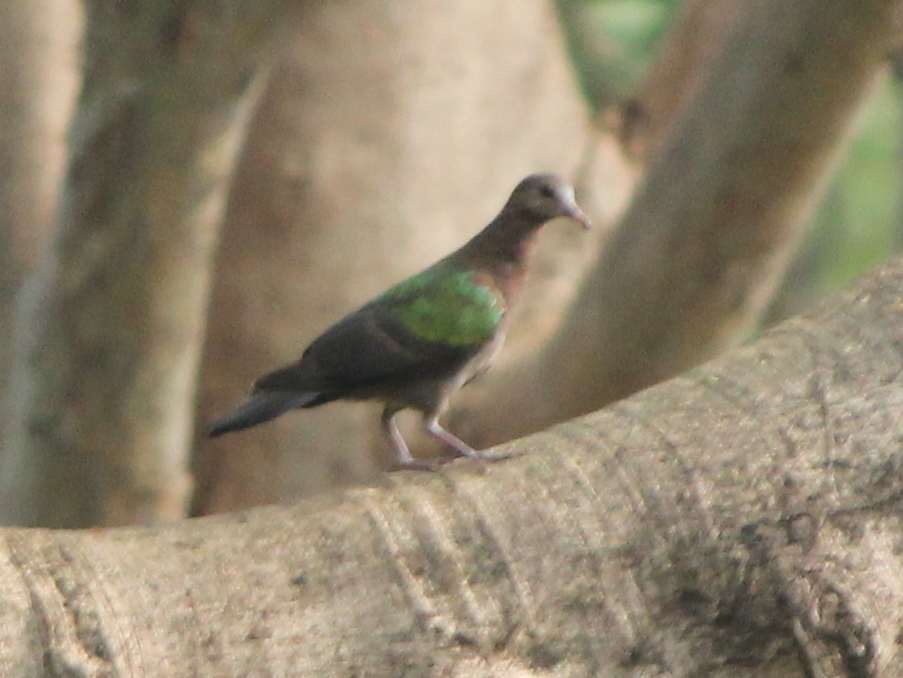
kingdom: Animalia
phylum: Chordata
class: Aves
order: Columbiformes
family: Columbidae
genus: Chalcophaps
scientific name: Chalcophaps indica
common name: Common emerald dove
